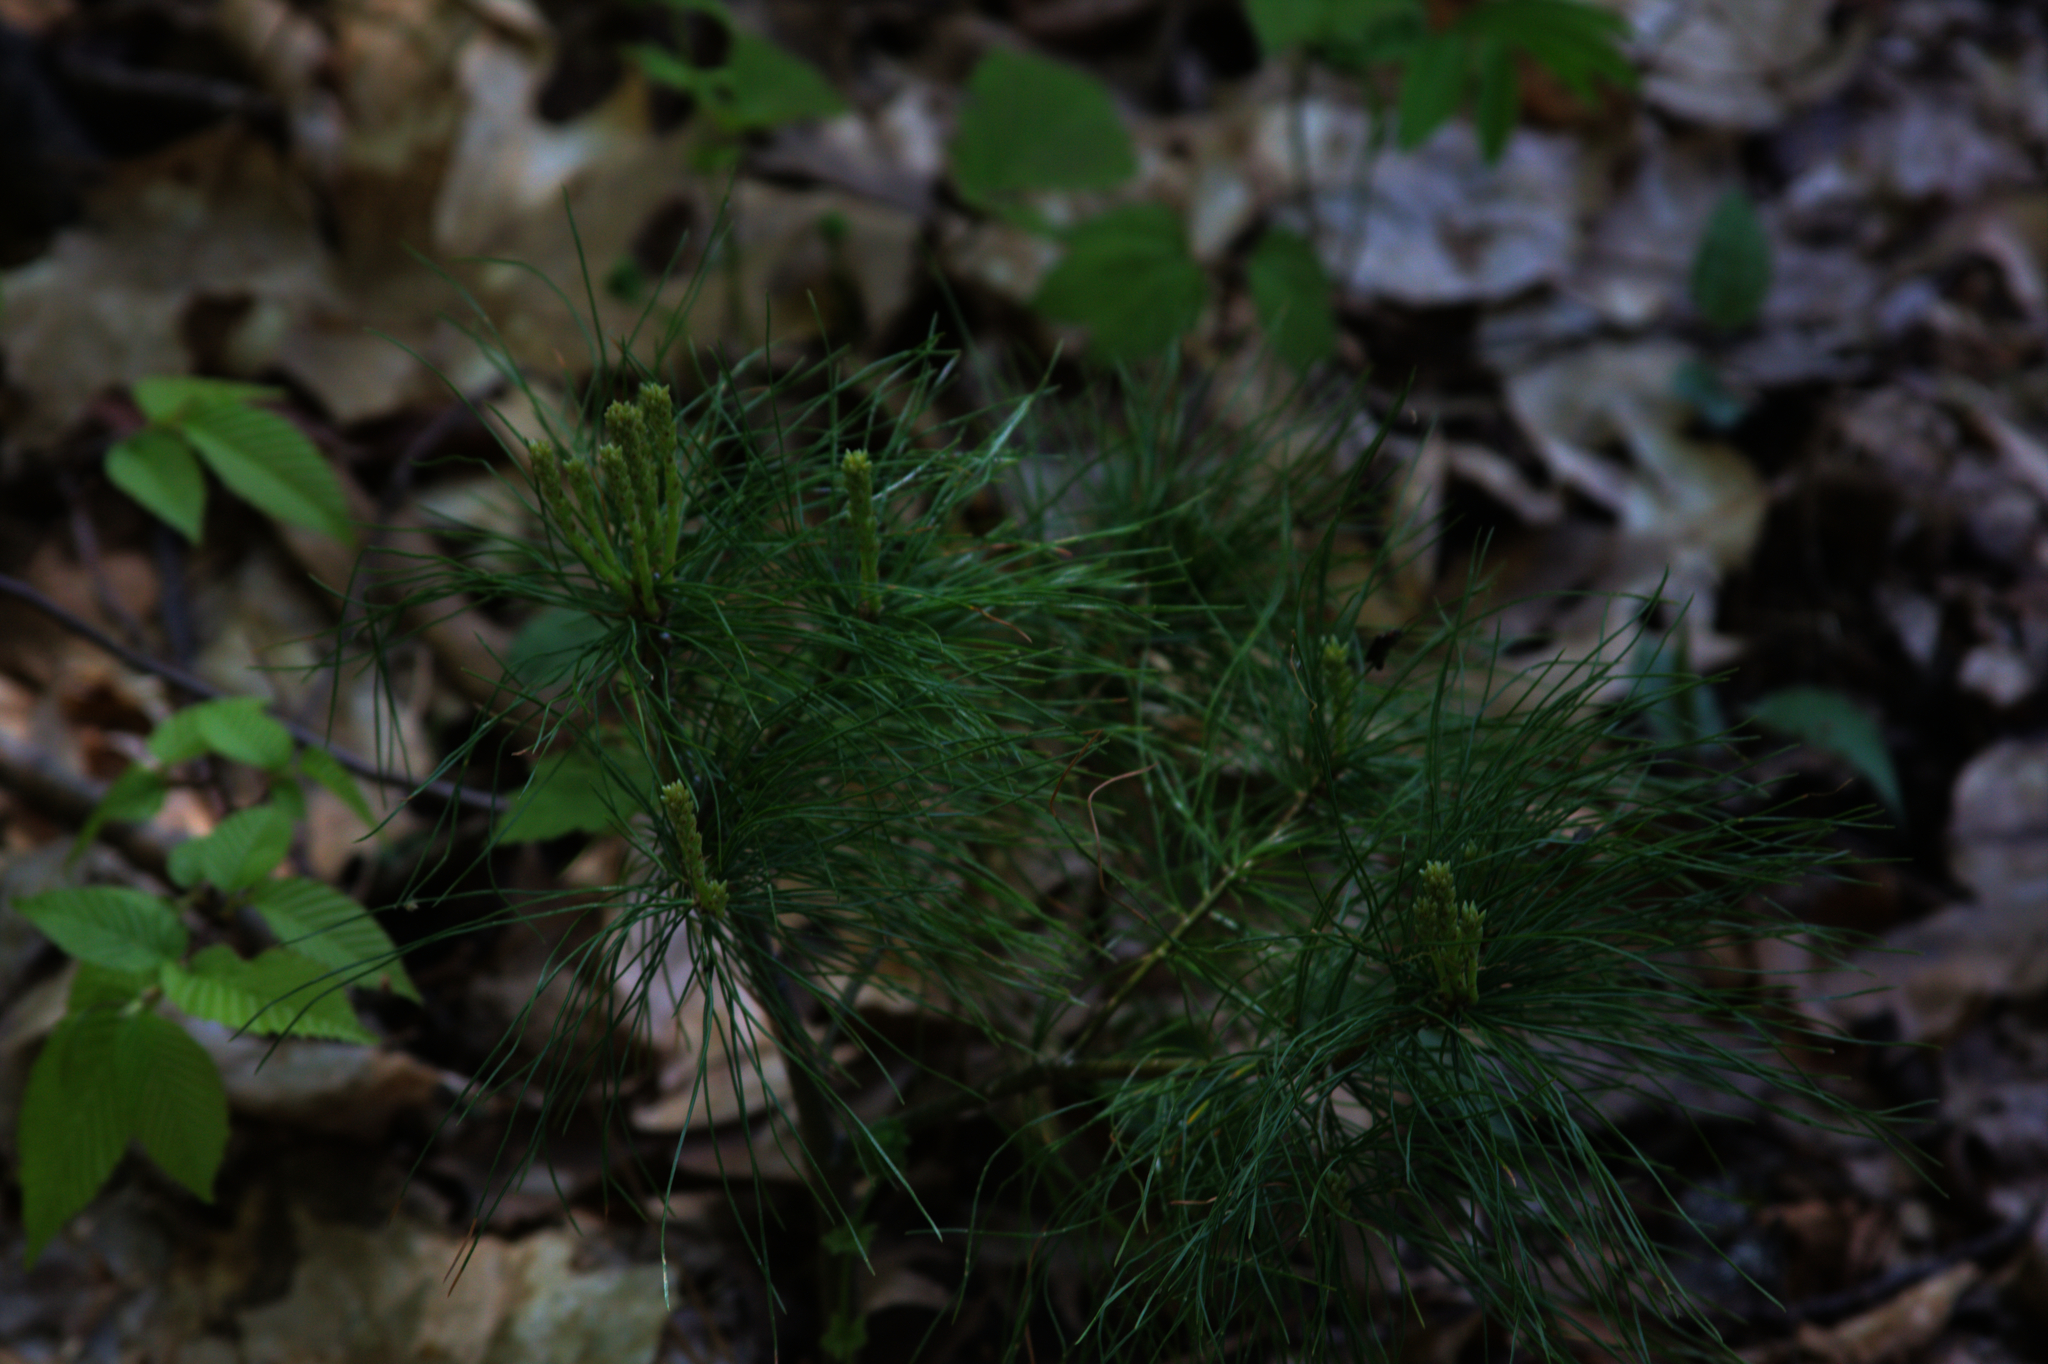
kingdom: Plantae
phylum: Tracheophyta
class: Pinopsida
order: Pinales
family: Pinaceae
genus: Pinus
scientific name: Pinus strobus
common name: Weymouth pine
